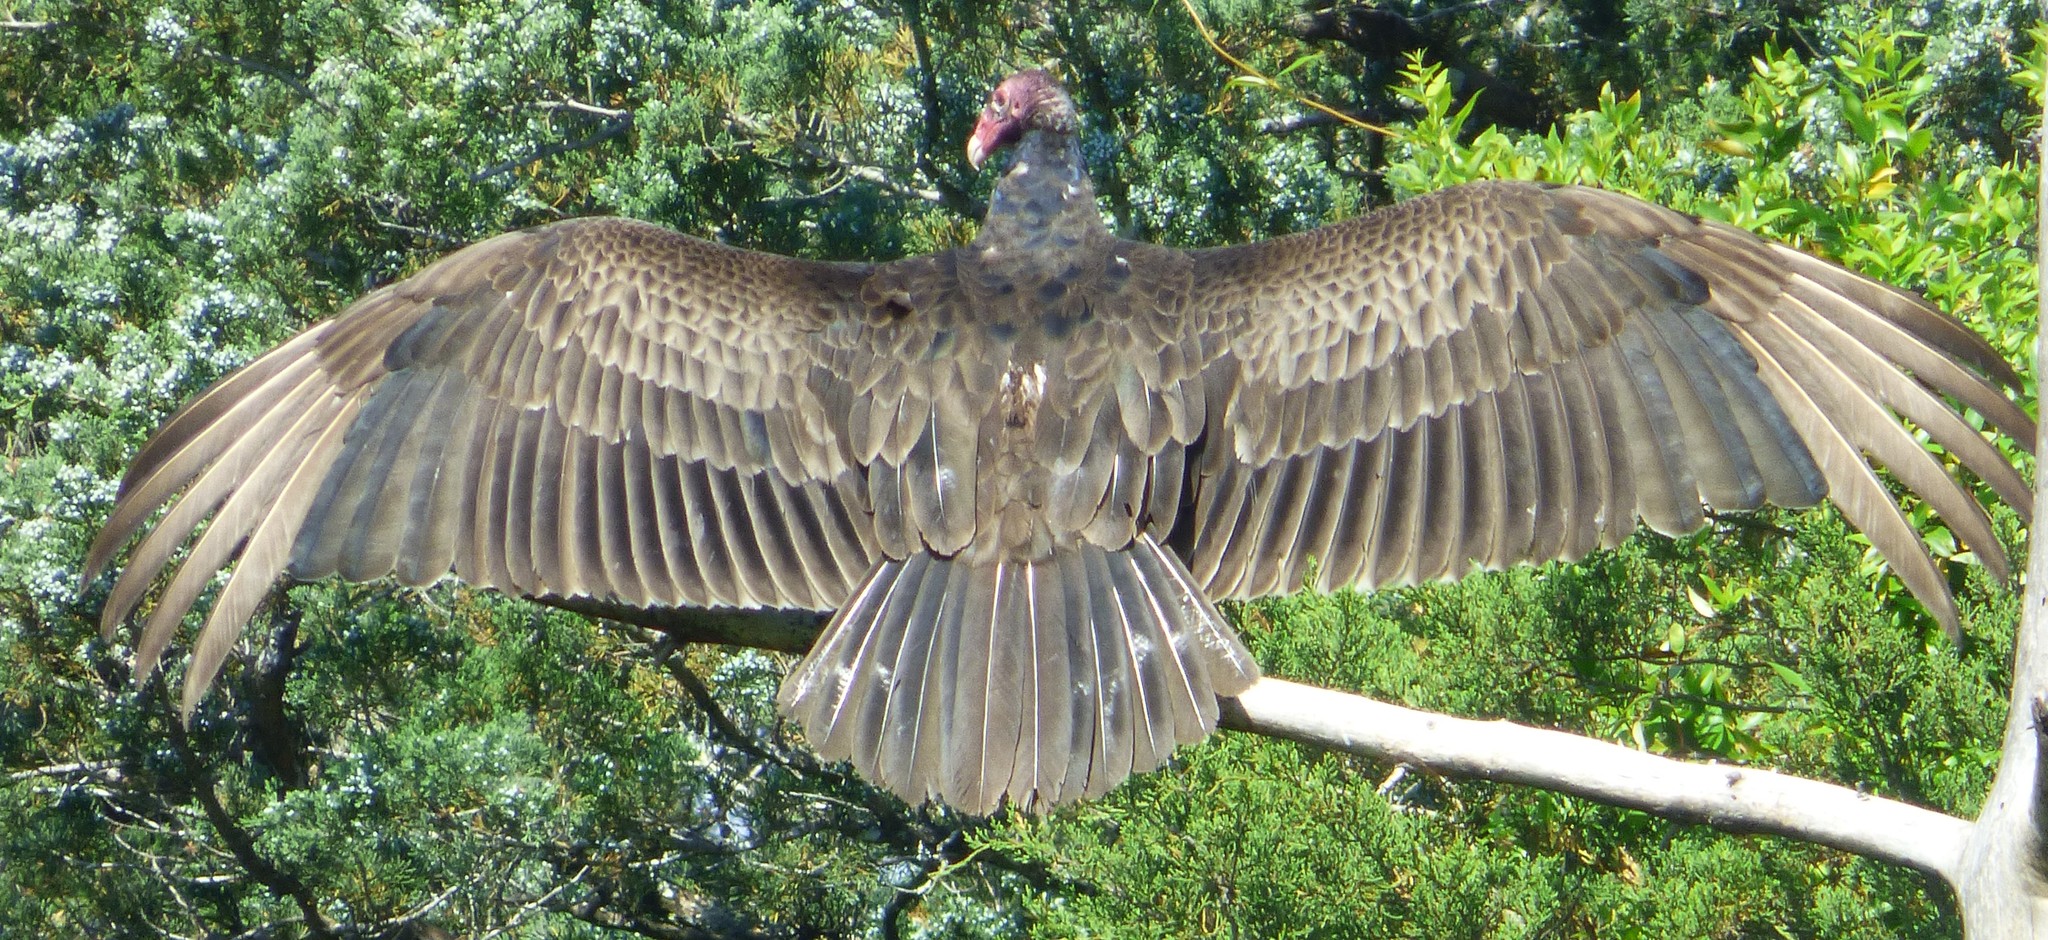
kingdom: Animalia
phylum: Chordata
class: Aves
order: Accipitriformes
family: Cathartidae
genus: Cathartes
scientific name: Cathartes aura
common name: Turkey vulture
